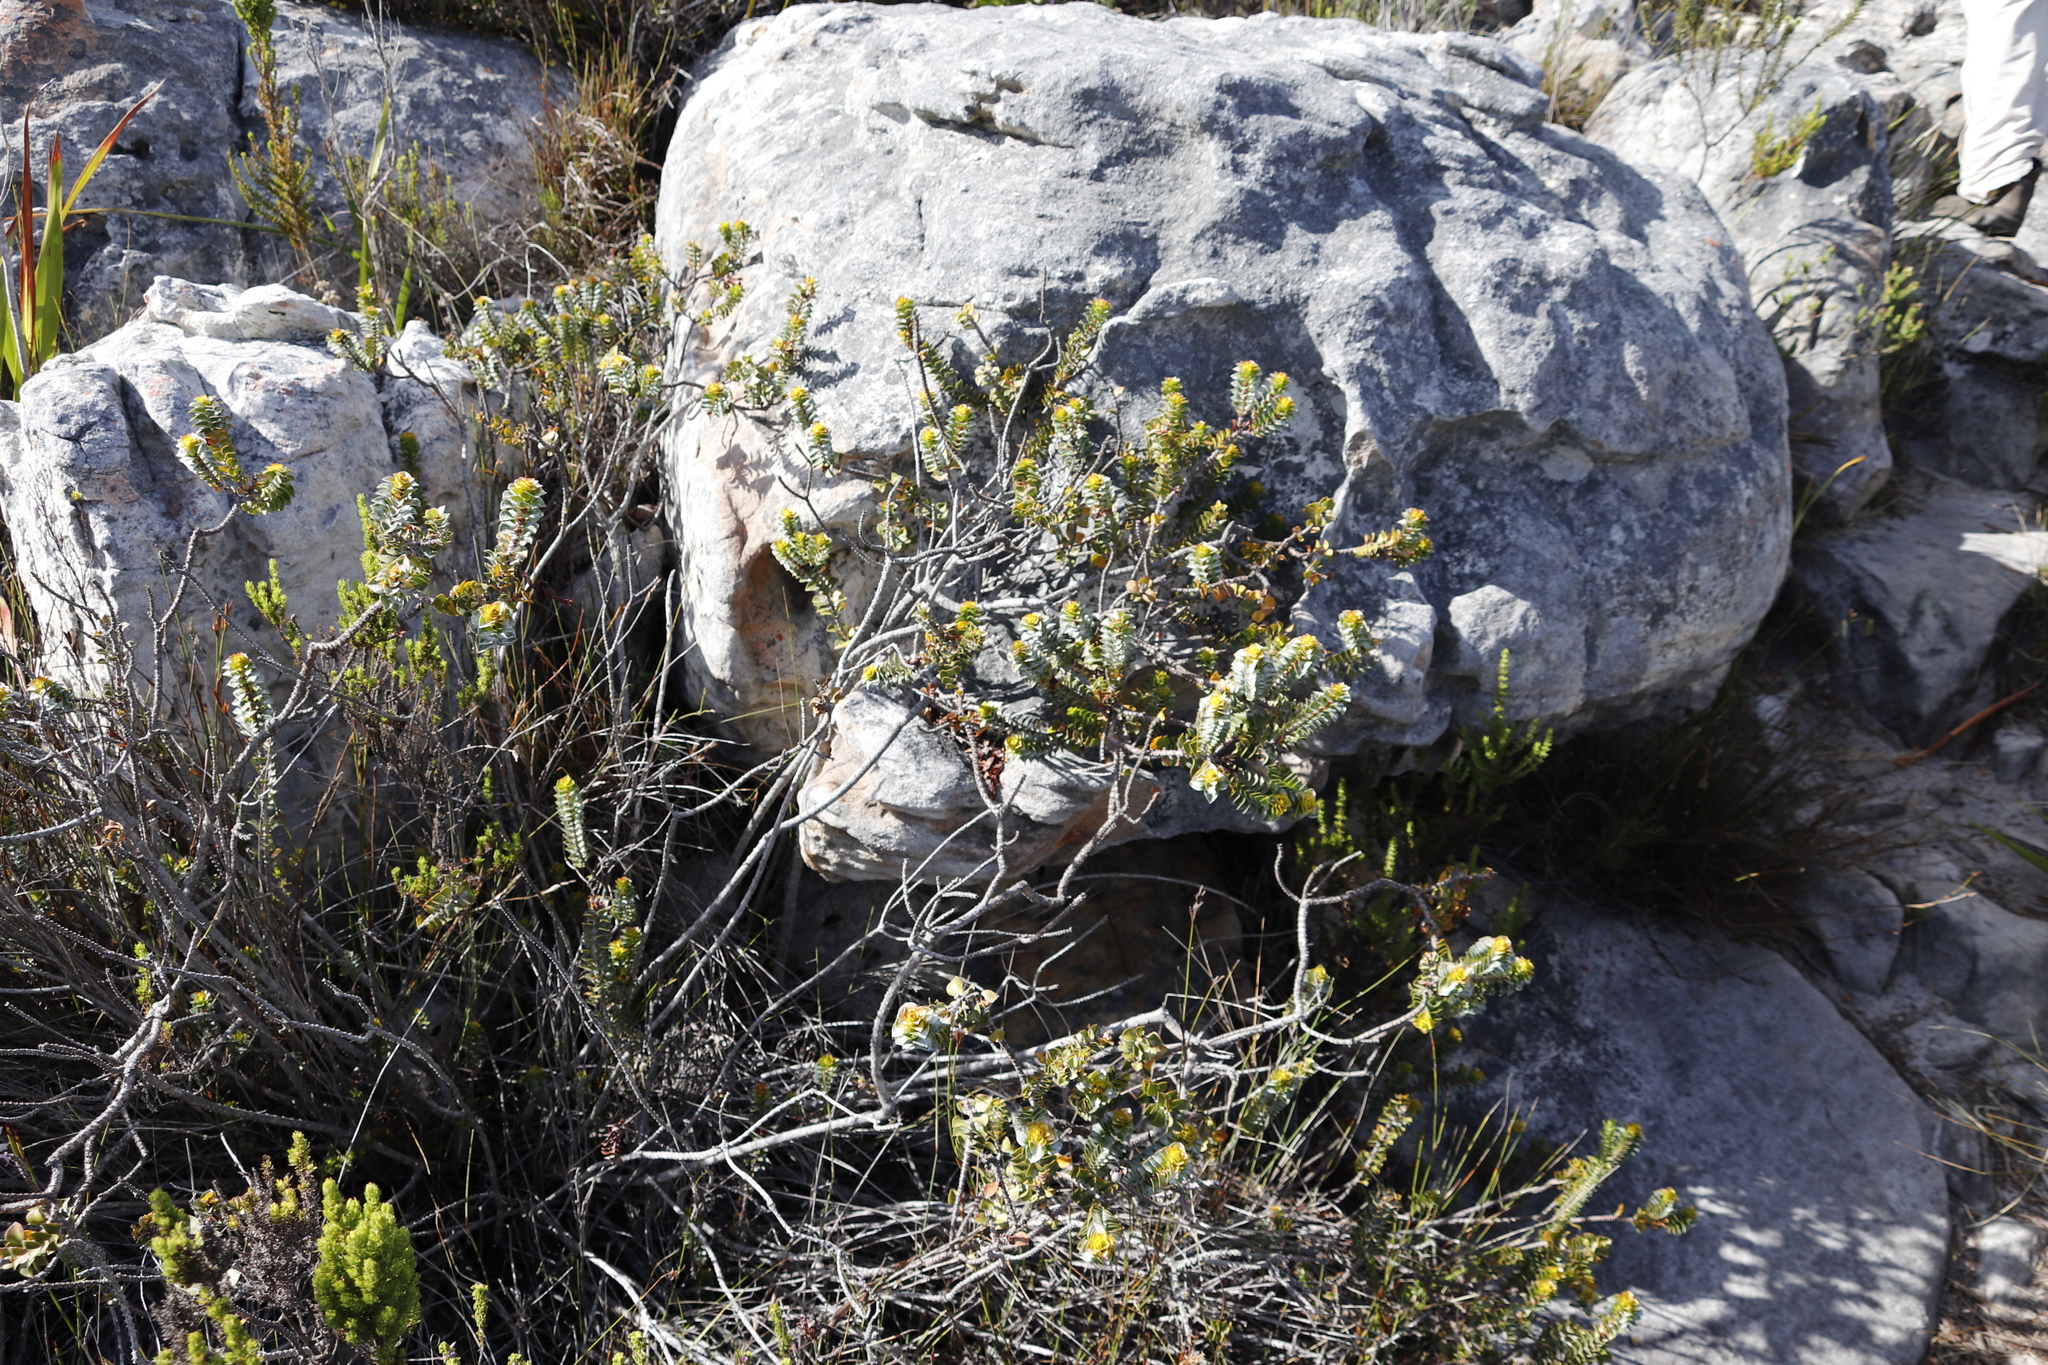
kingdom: Plantae
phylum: Tracheophyta
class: Magnoliopsida
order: Myrtales
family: Penaeaceae
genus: Saltera
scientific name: Saltera sarcocolla
